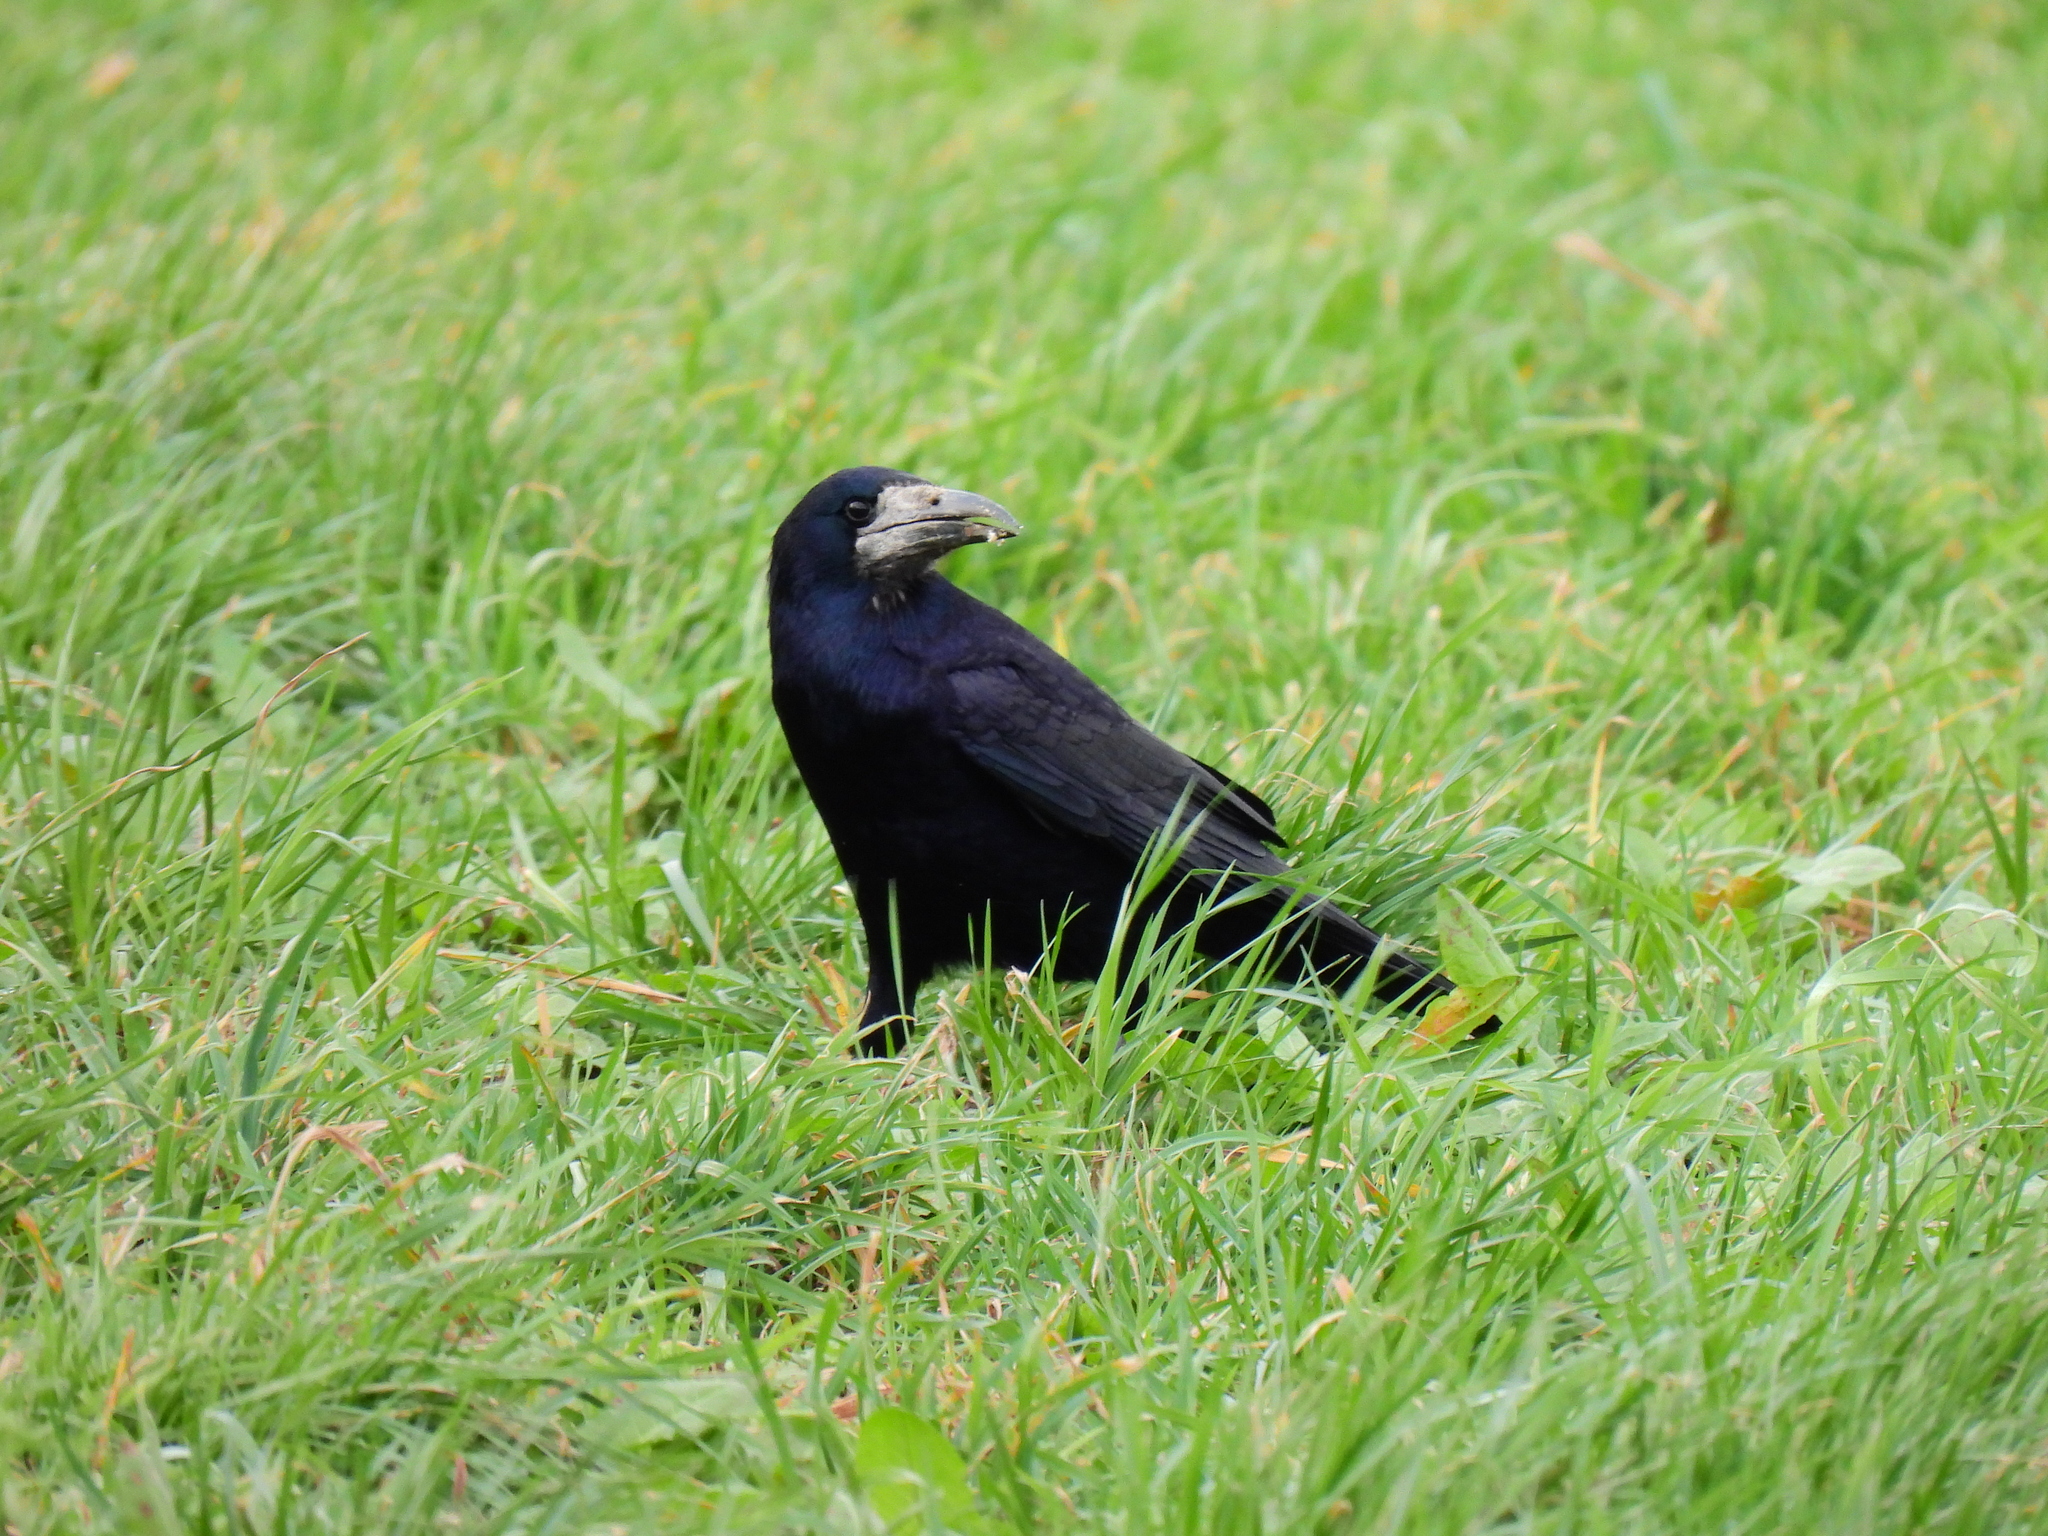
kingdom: Animalia
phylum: Chordata
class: Aves
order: Passeriformes
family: Corvidae
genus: Corvus
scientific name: Corvus frugilegus
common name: Rook
